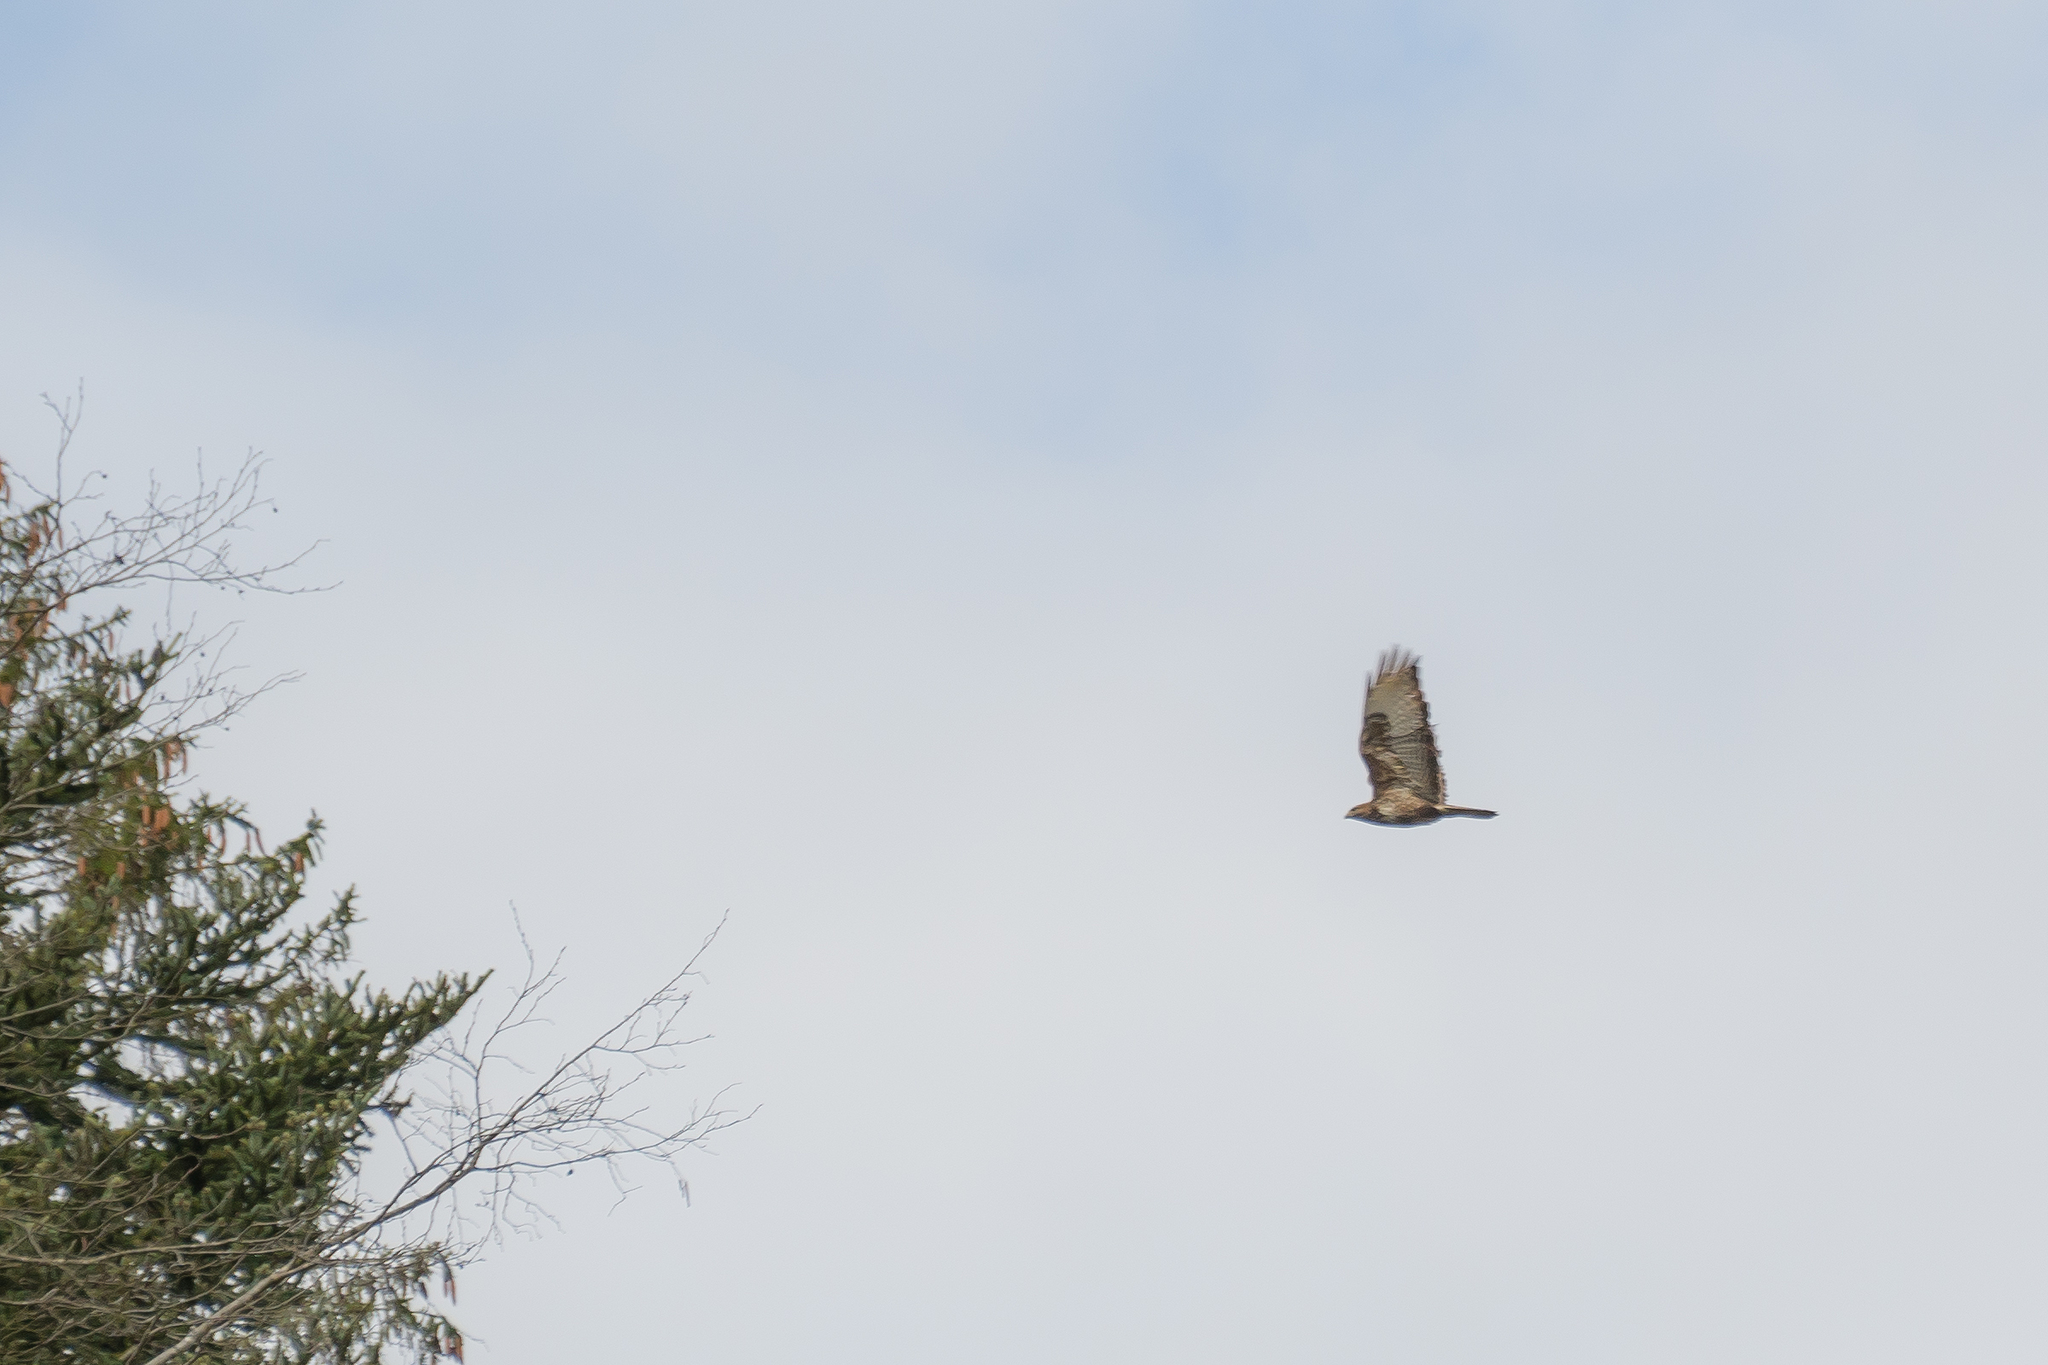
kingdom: Animalia
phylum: Chordata
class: Aves
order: Accipitriformes
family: Accipitridae
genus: Buteo
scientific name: Buteo buteo
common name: Common buzzard
